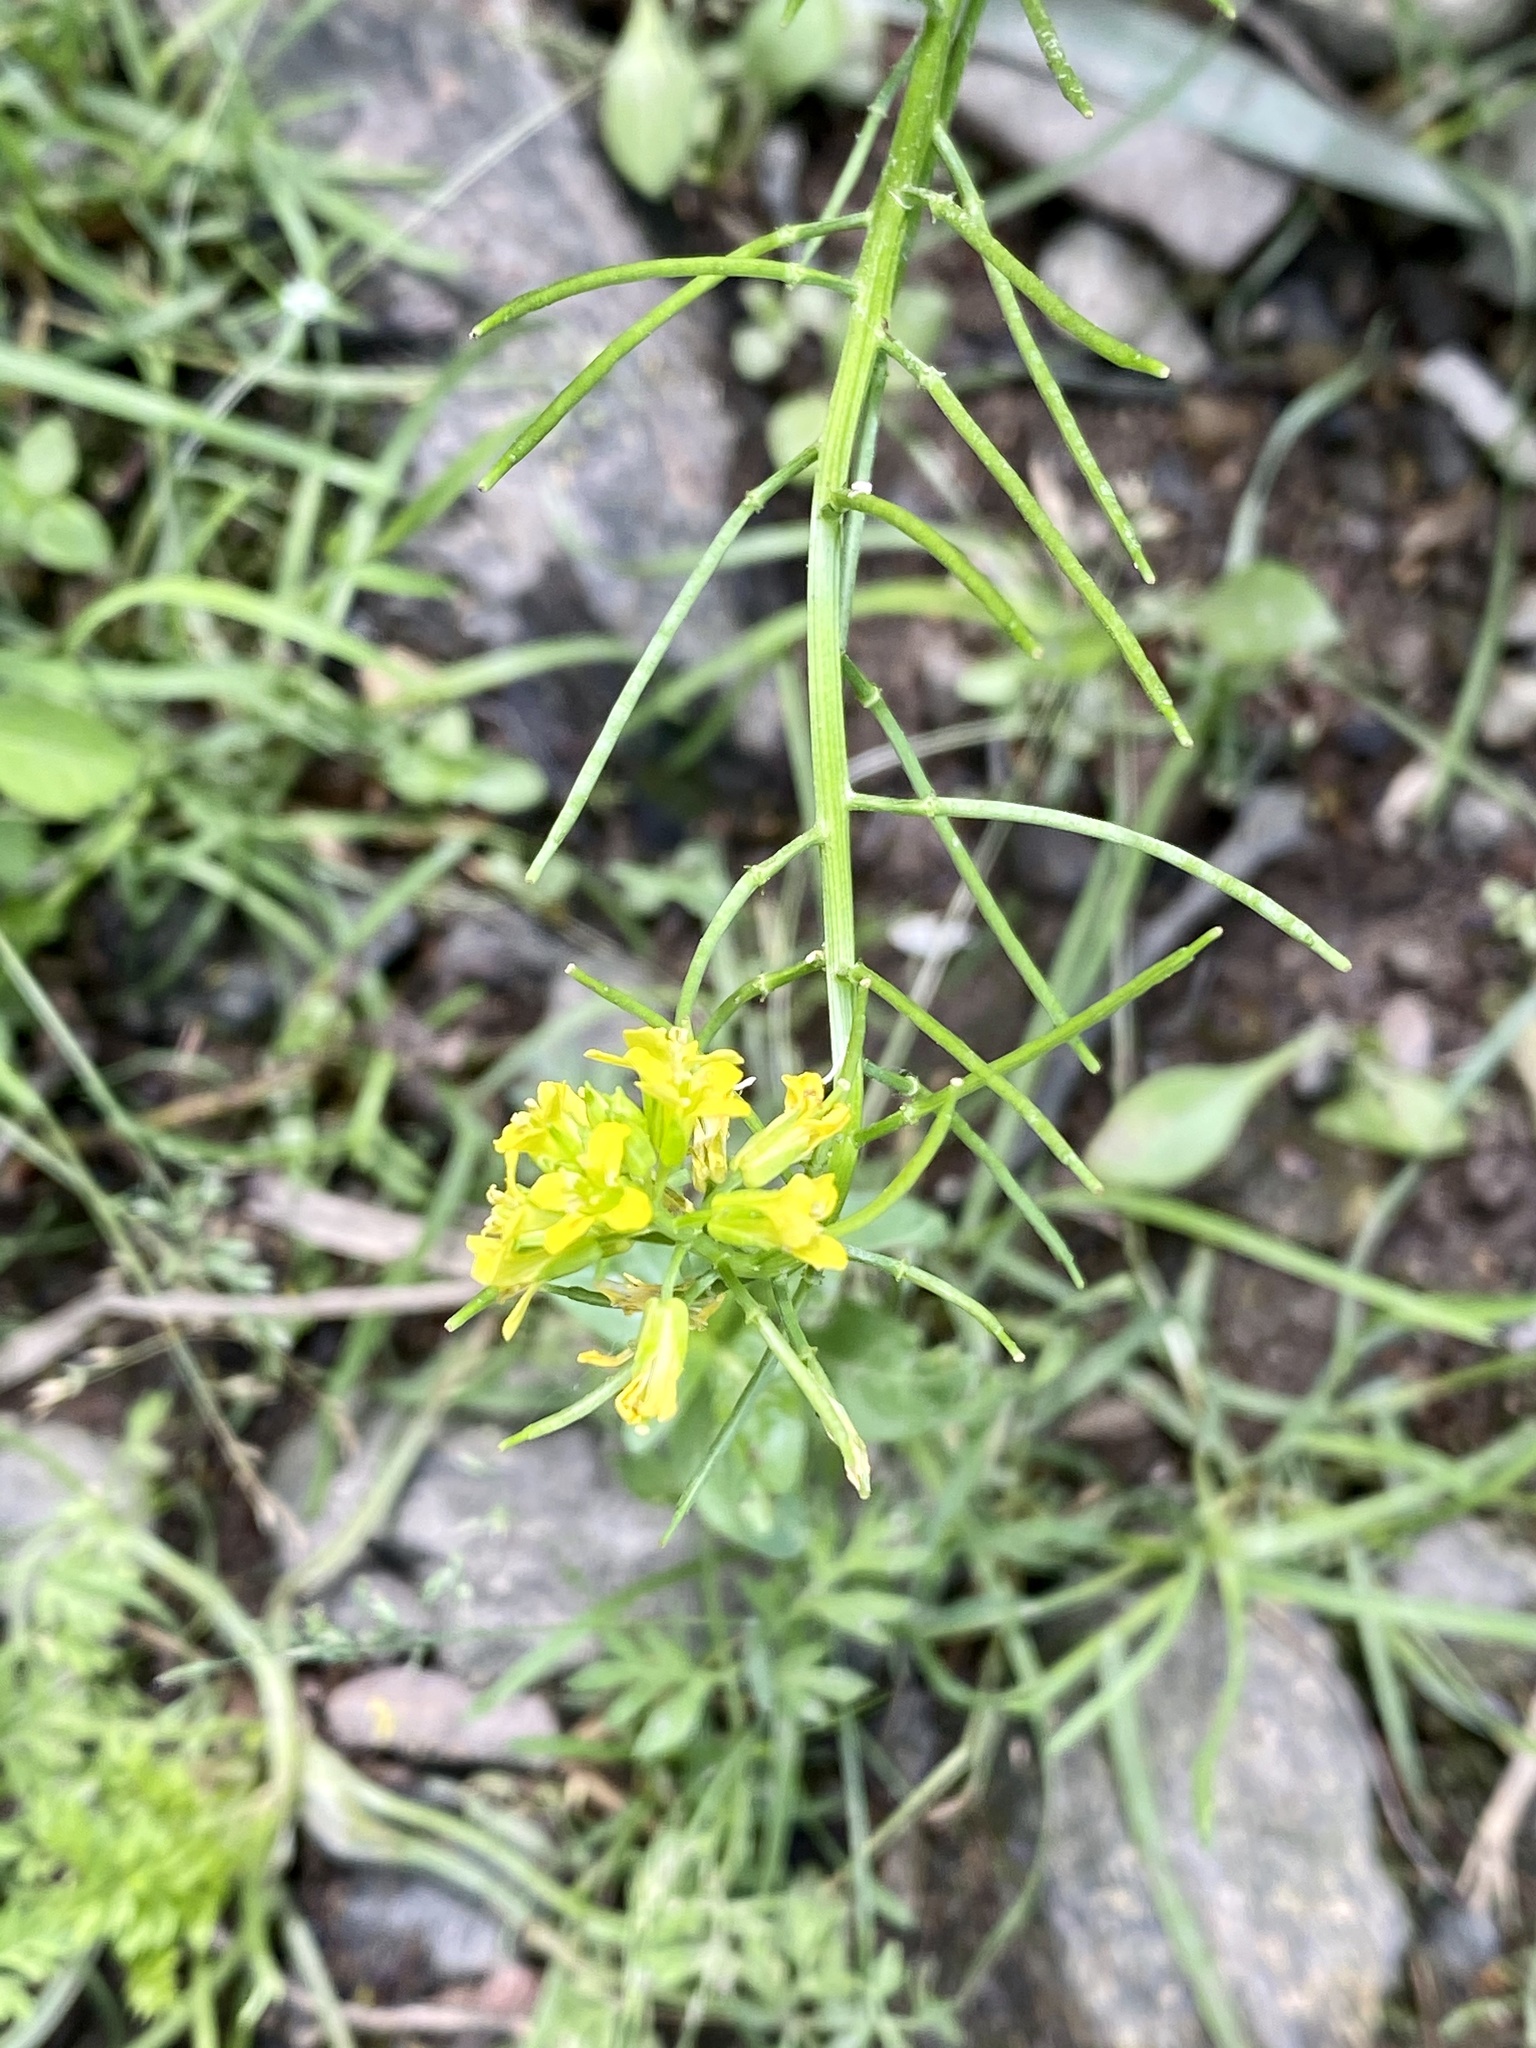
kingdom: Plantae
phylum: Tracheophyta
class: Magnoliopsida
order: Brassicales
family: Brassicaceae
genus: Barbarea
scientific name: Barbarea vulgaris
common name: Cressy-greens
